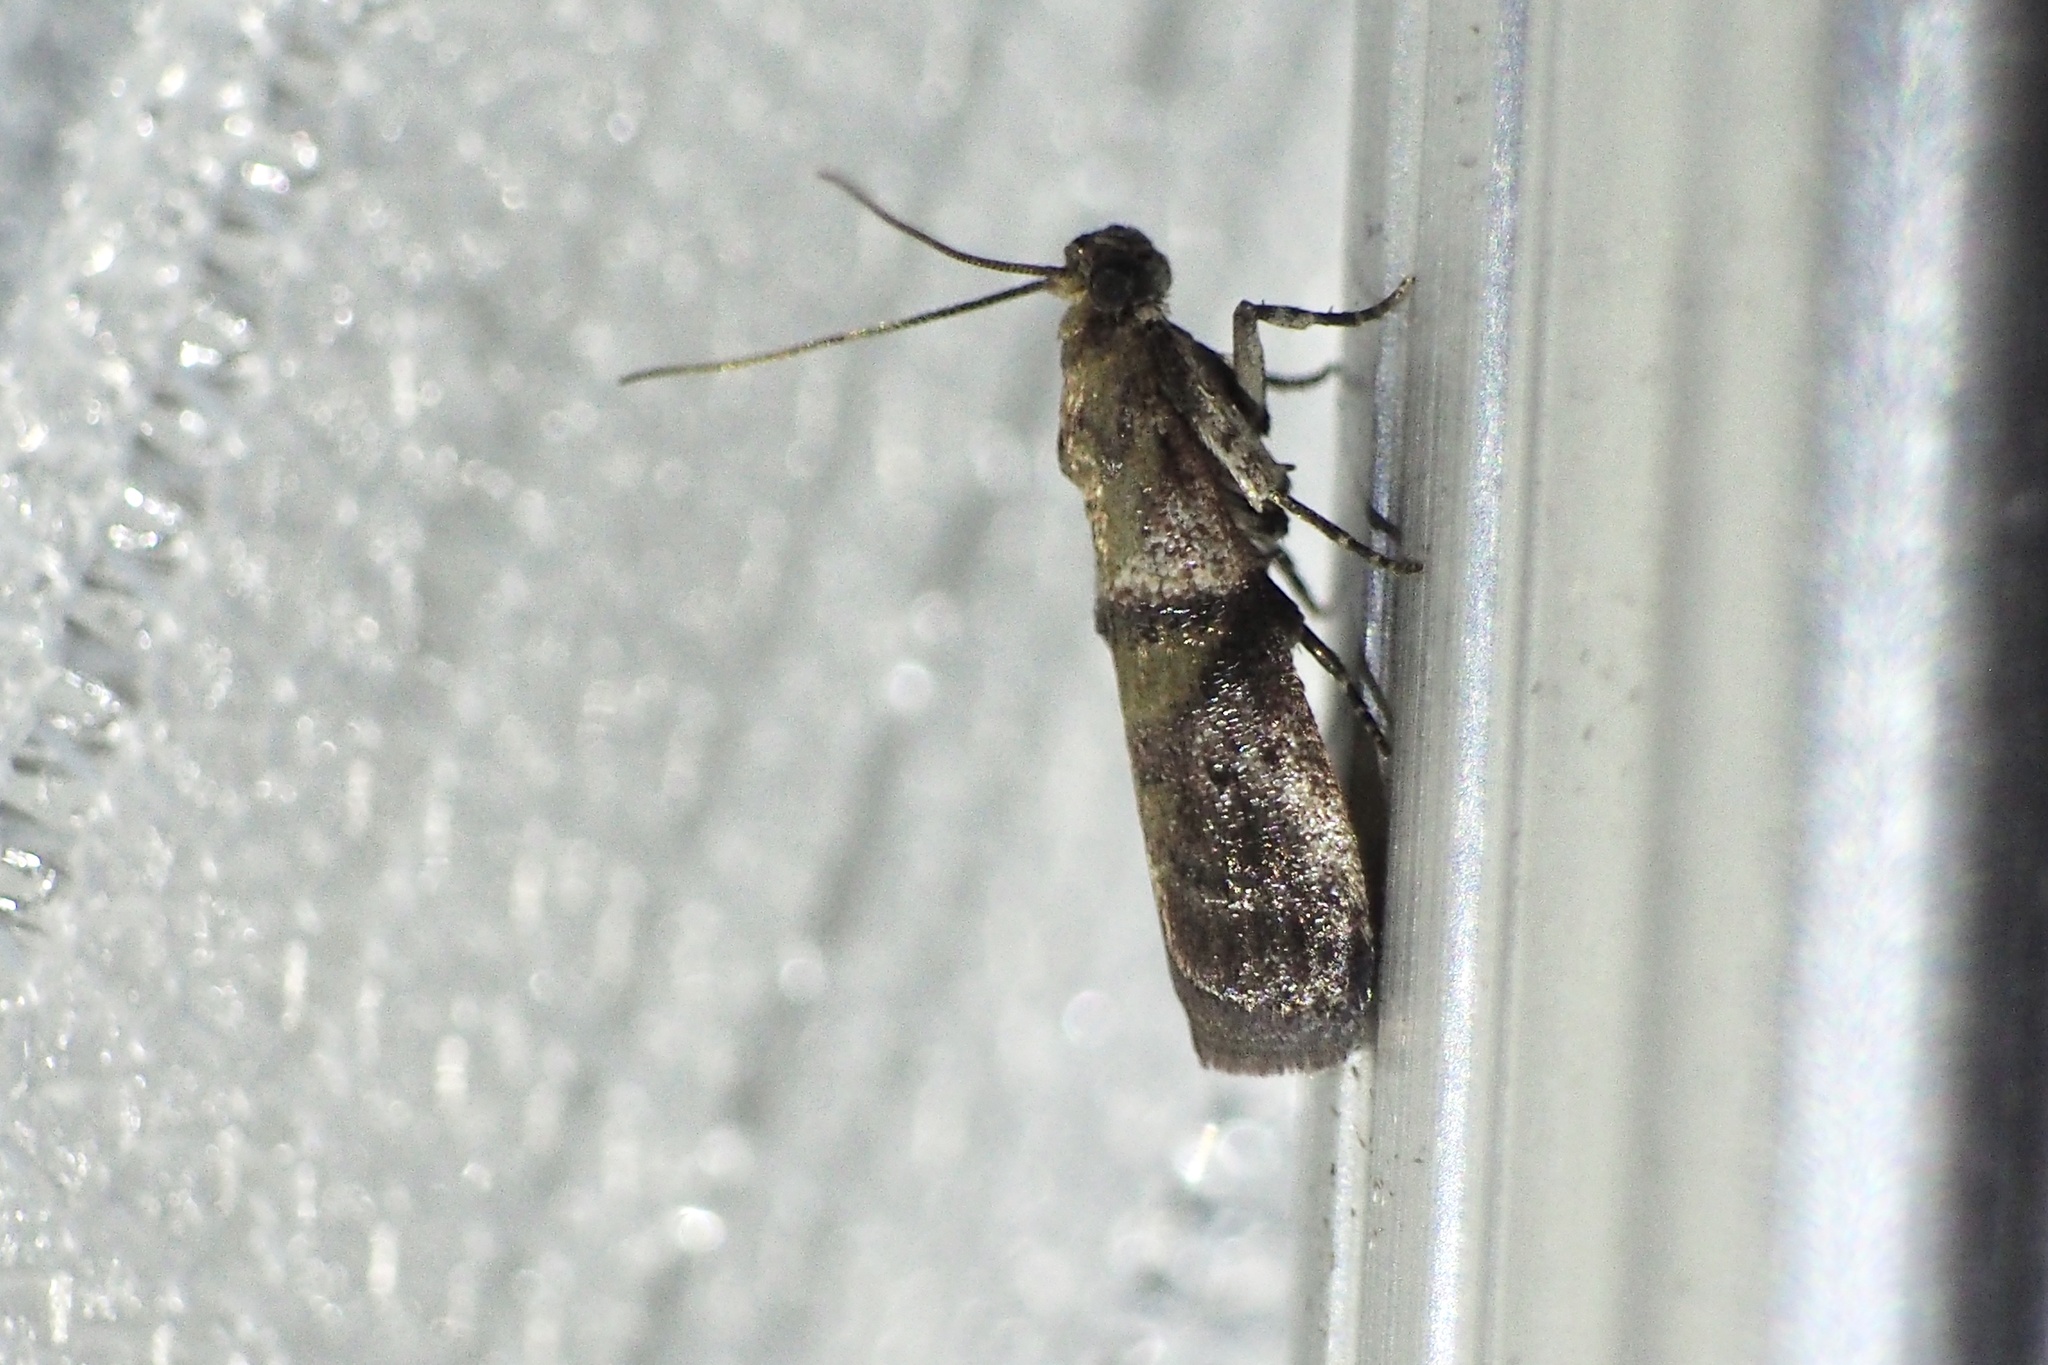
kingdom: Animalia
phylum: Arthropoda
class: Insecta
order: Lepidoptera
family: Pyralidae
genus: Acrobasis
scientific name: Acrobasis tricolorella
